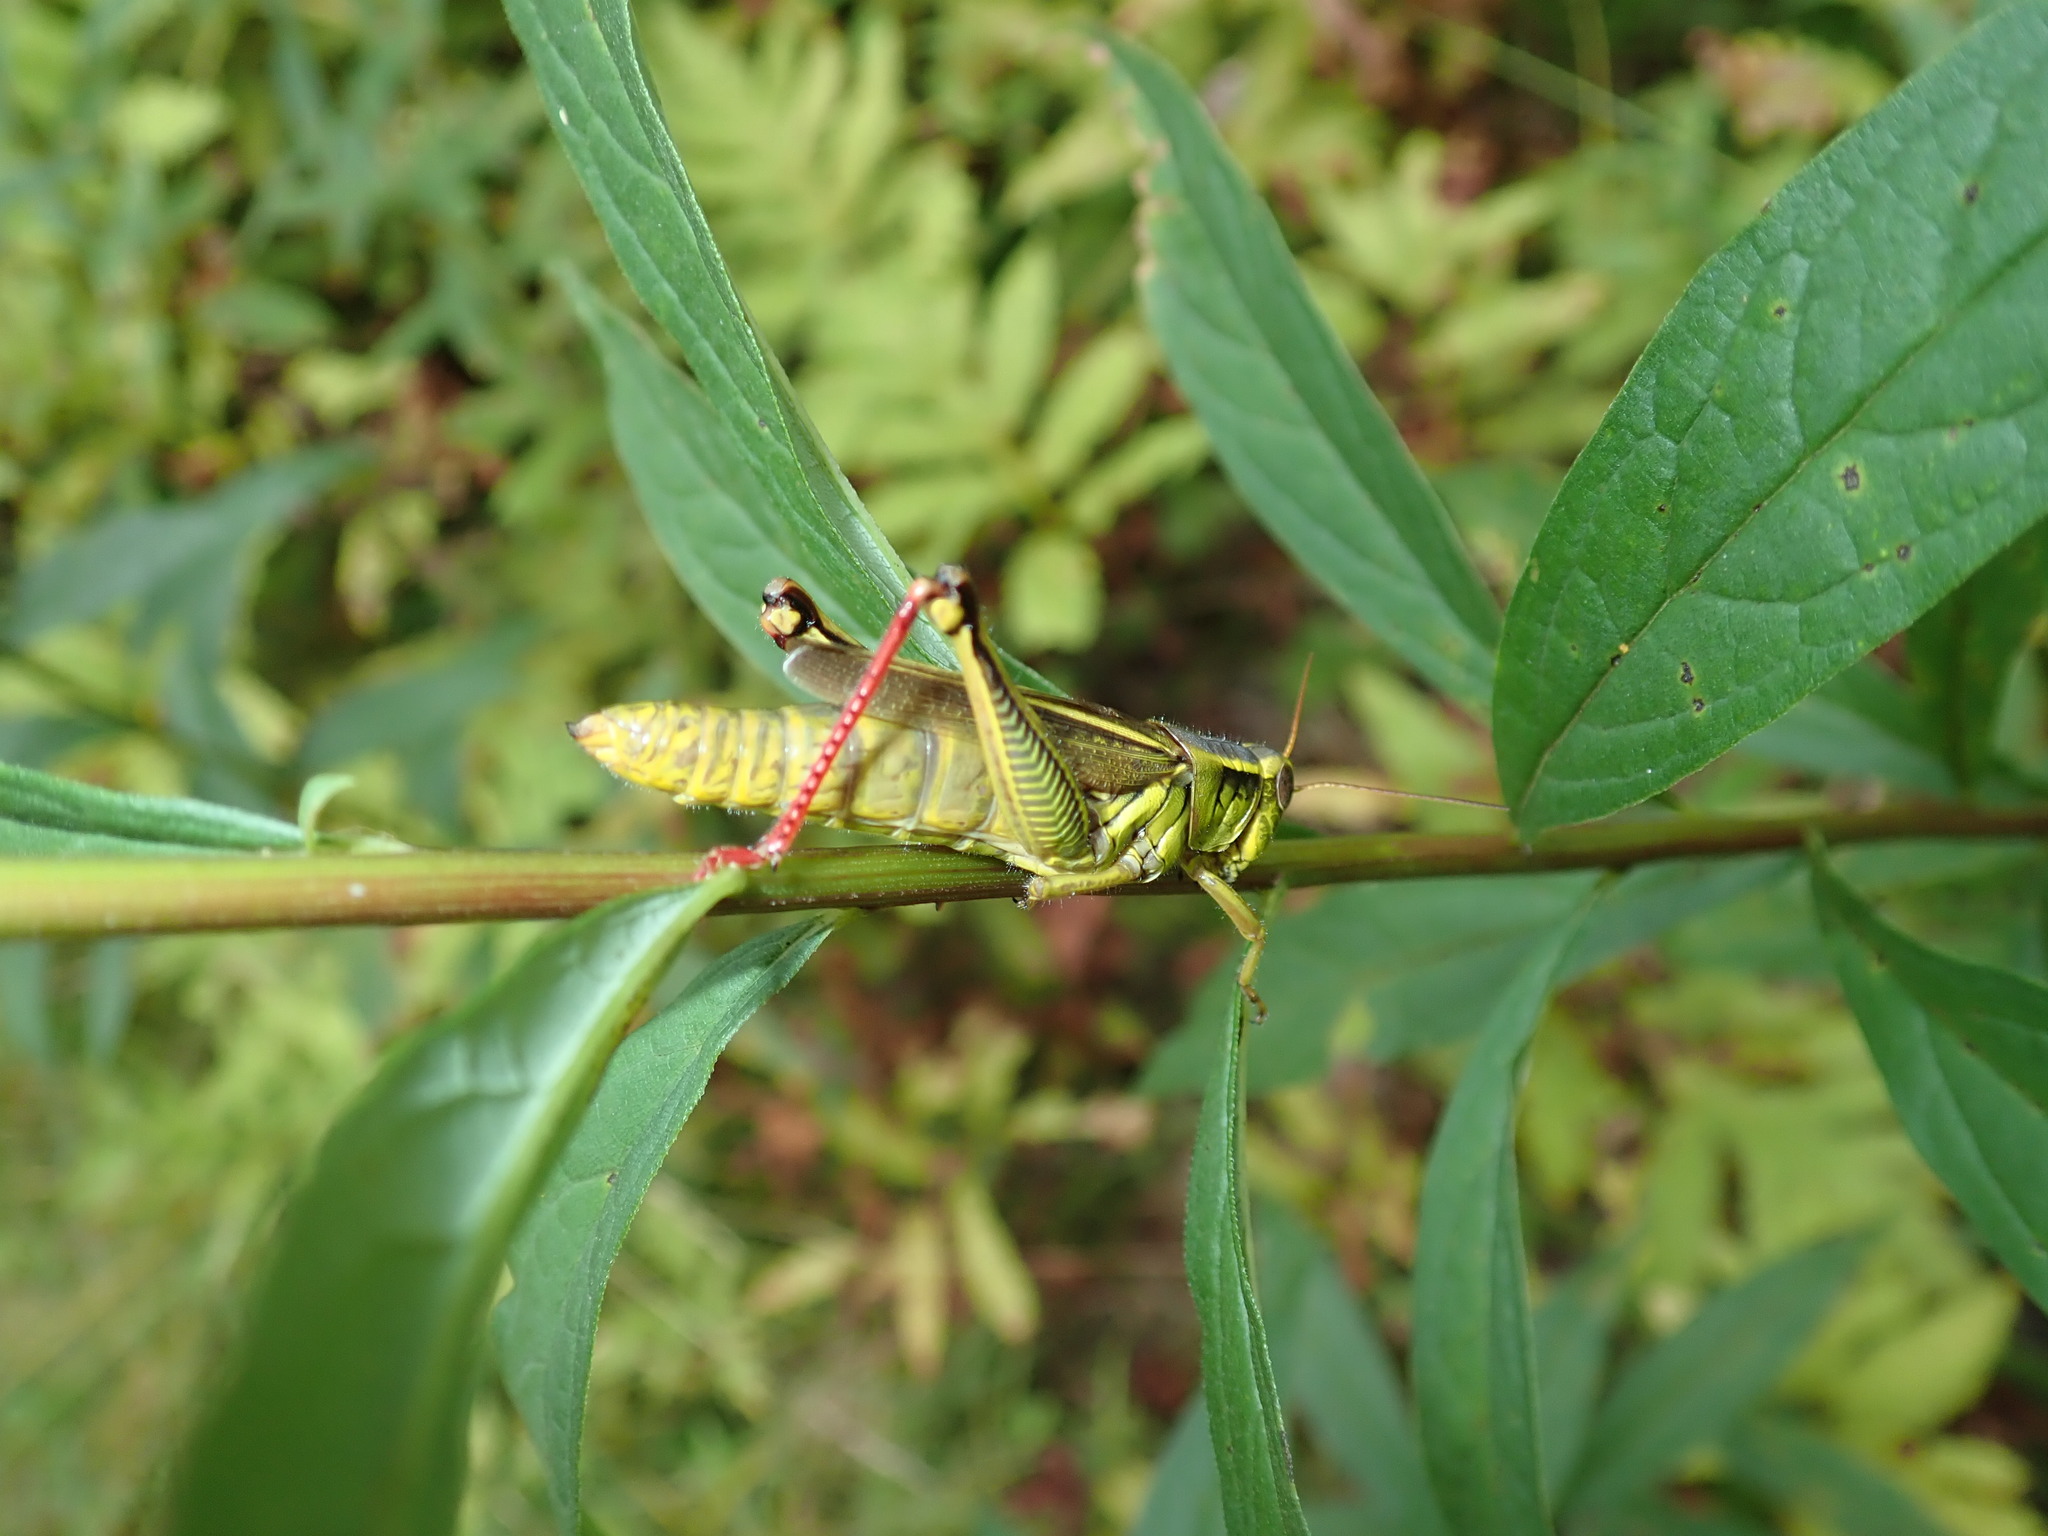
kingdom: Animalia
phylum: Arthropoda
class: Insecta
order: Orthoptera
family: Acrididae
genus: Melanoplus
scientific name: Melanoplus bivittatus
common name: Two-striped grasshopper
